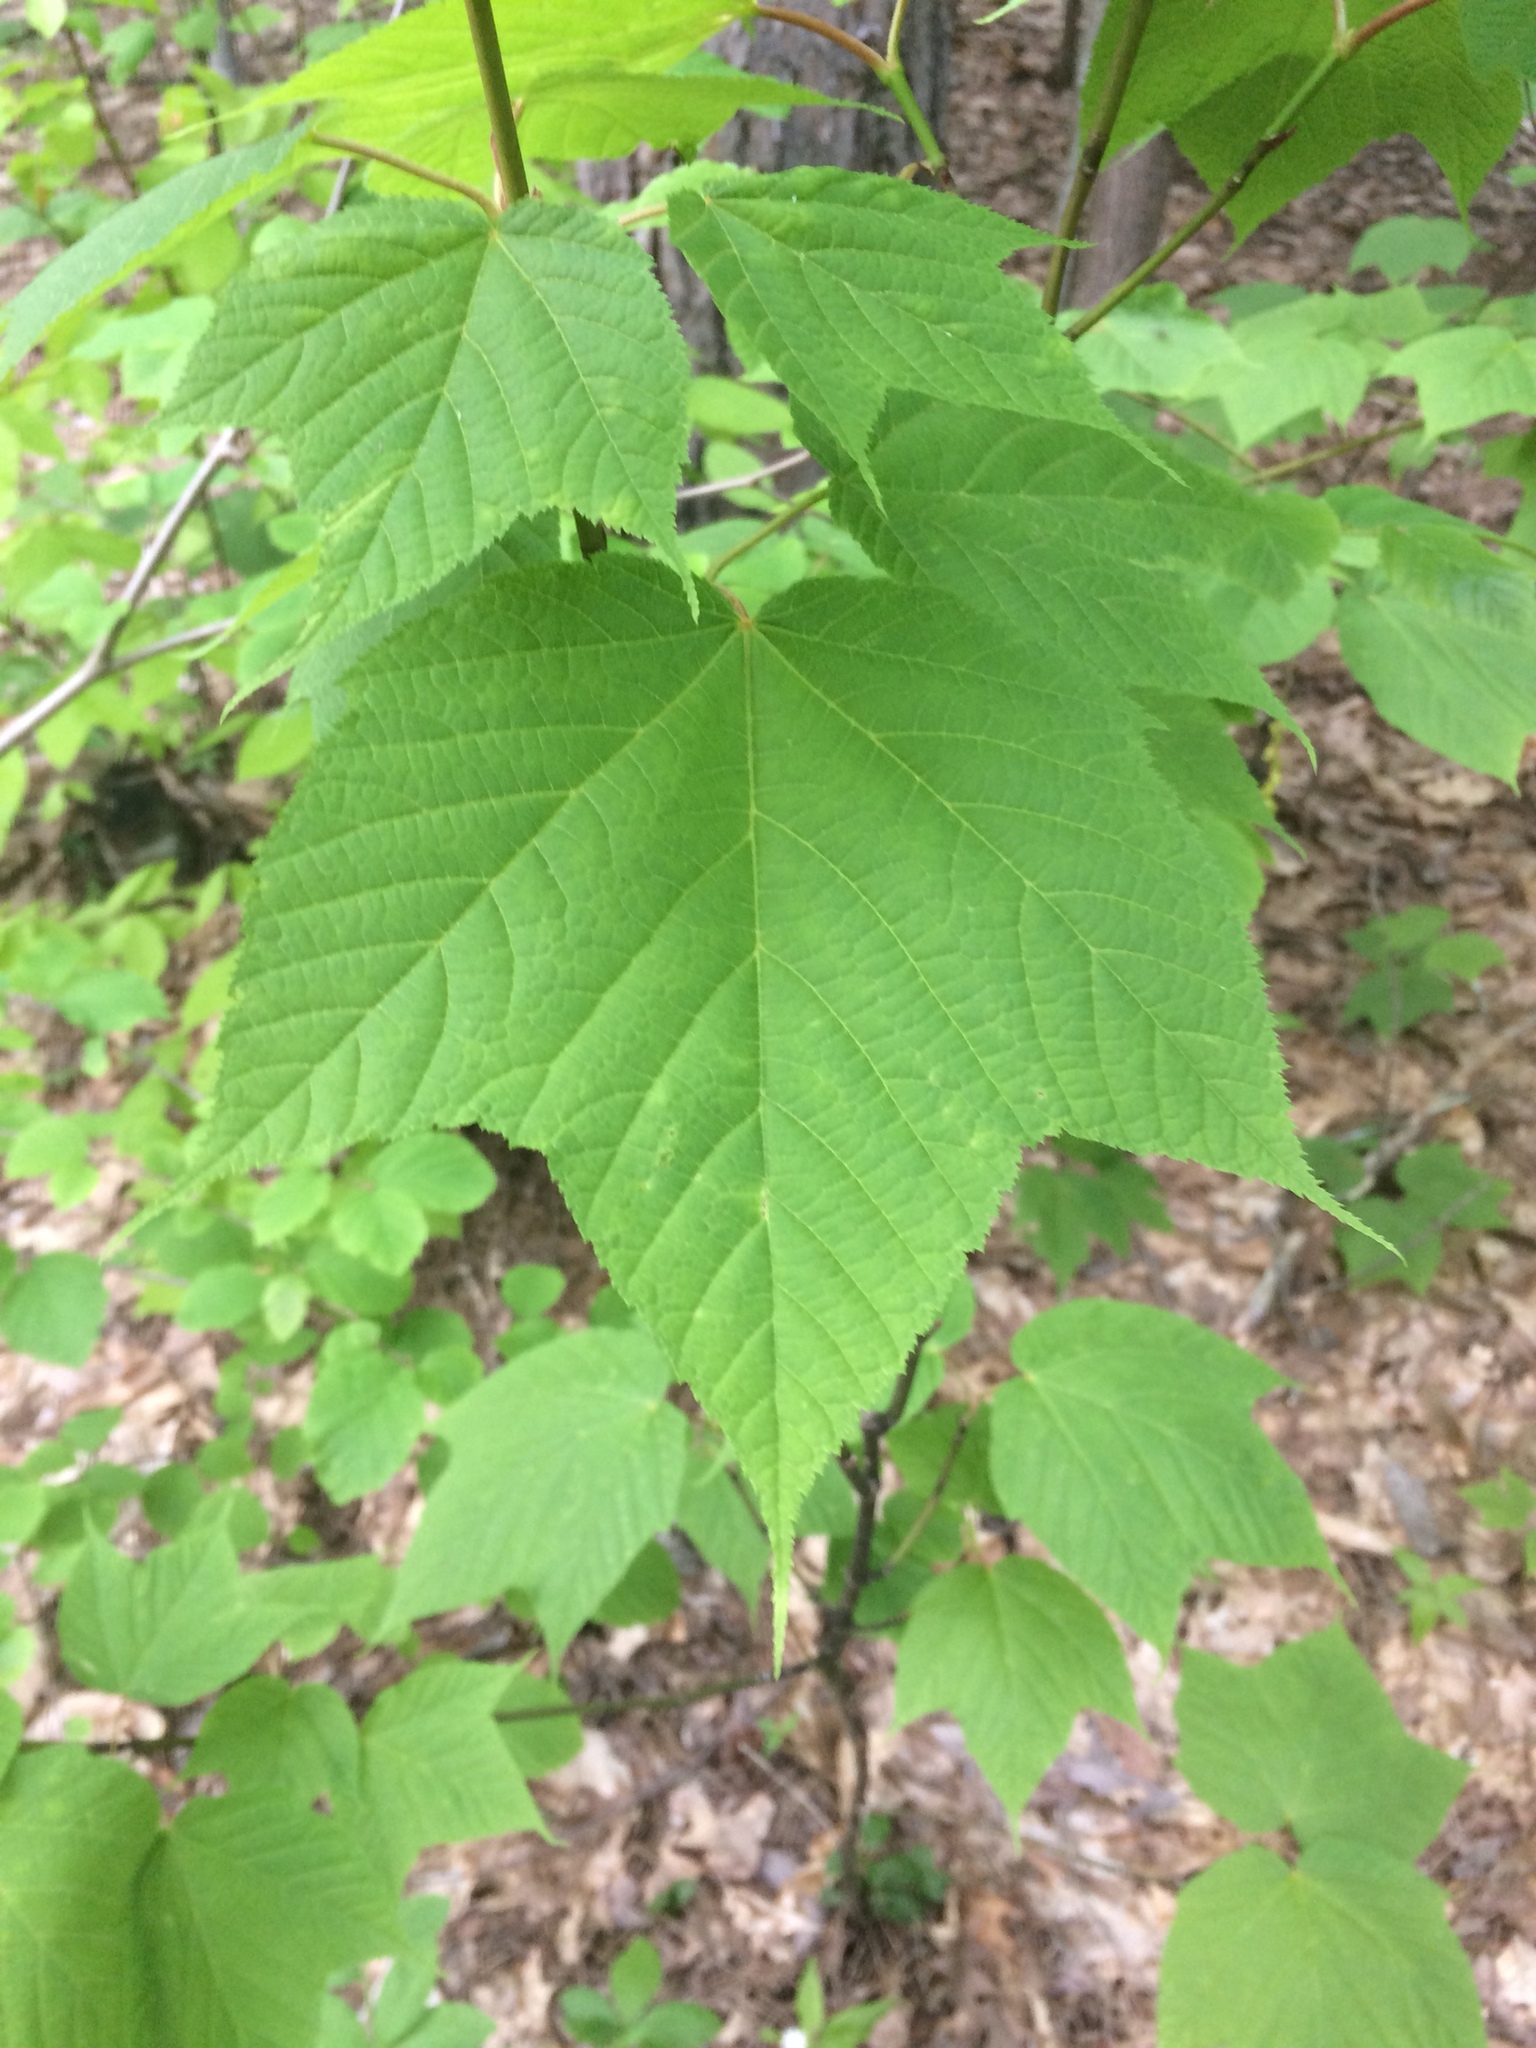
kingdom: Plantae
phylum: Tracheophyta
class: Magnoliopsida
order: Sapindales
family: Sapindaceae
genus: Acer
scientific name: Acer pensylvanicum
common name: Moosewood
